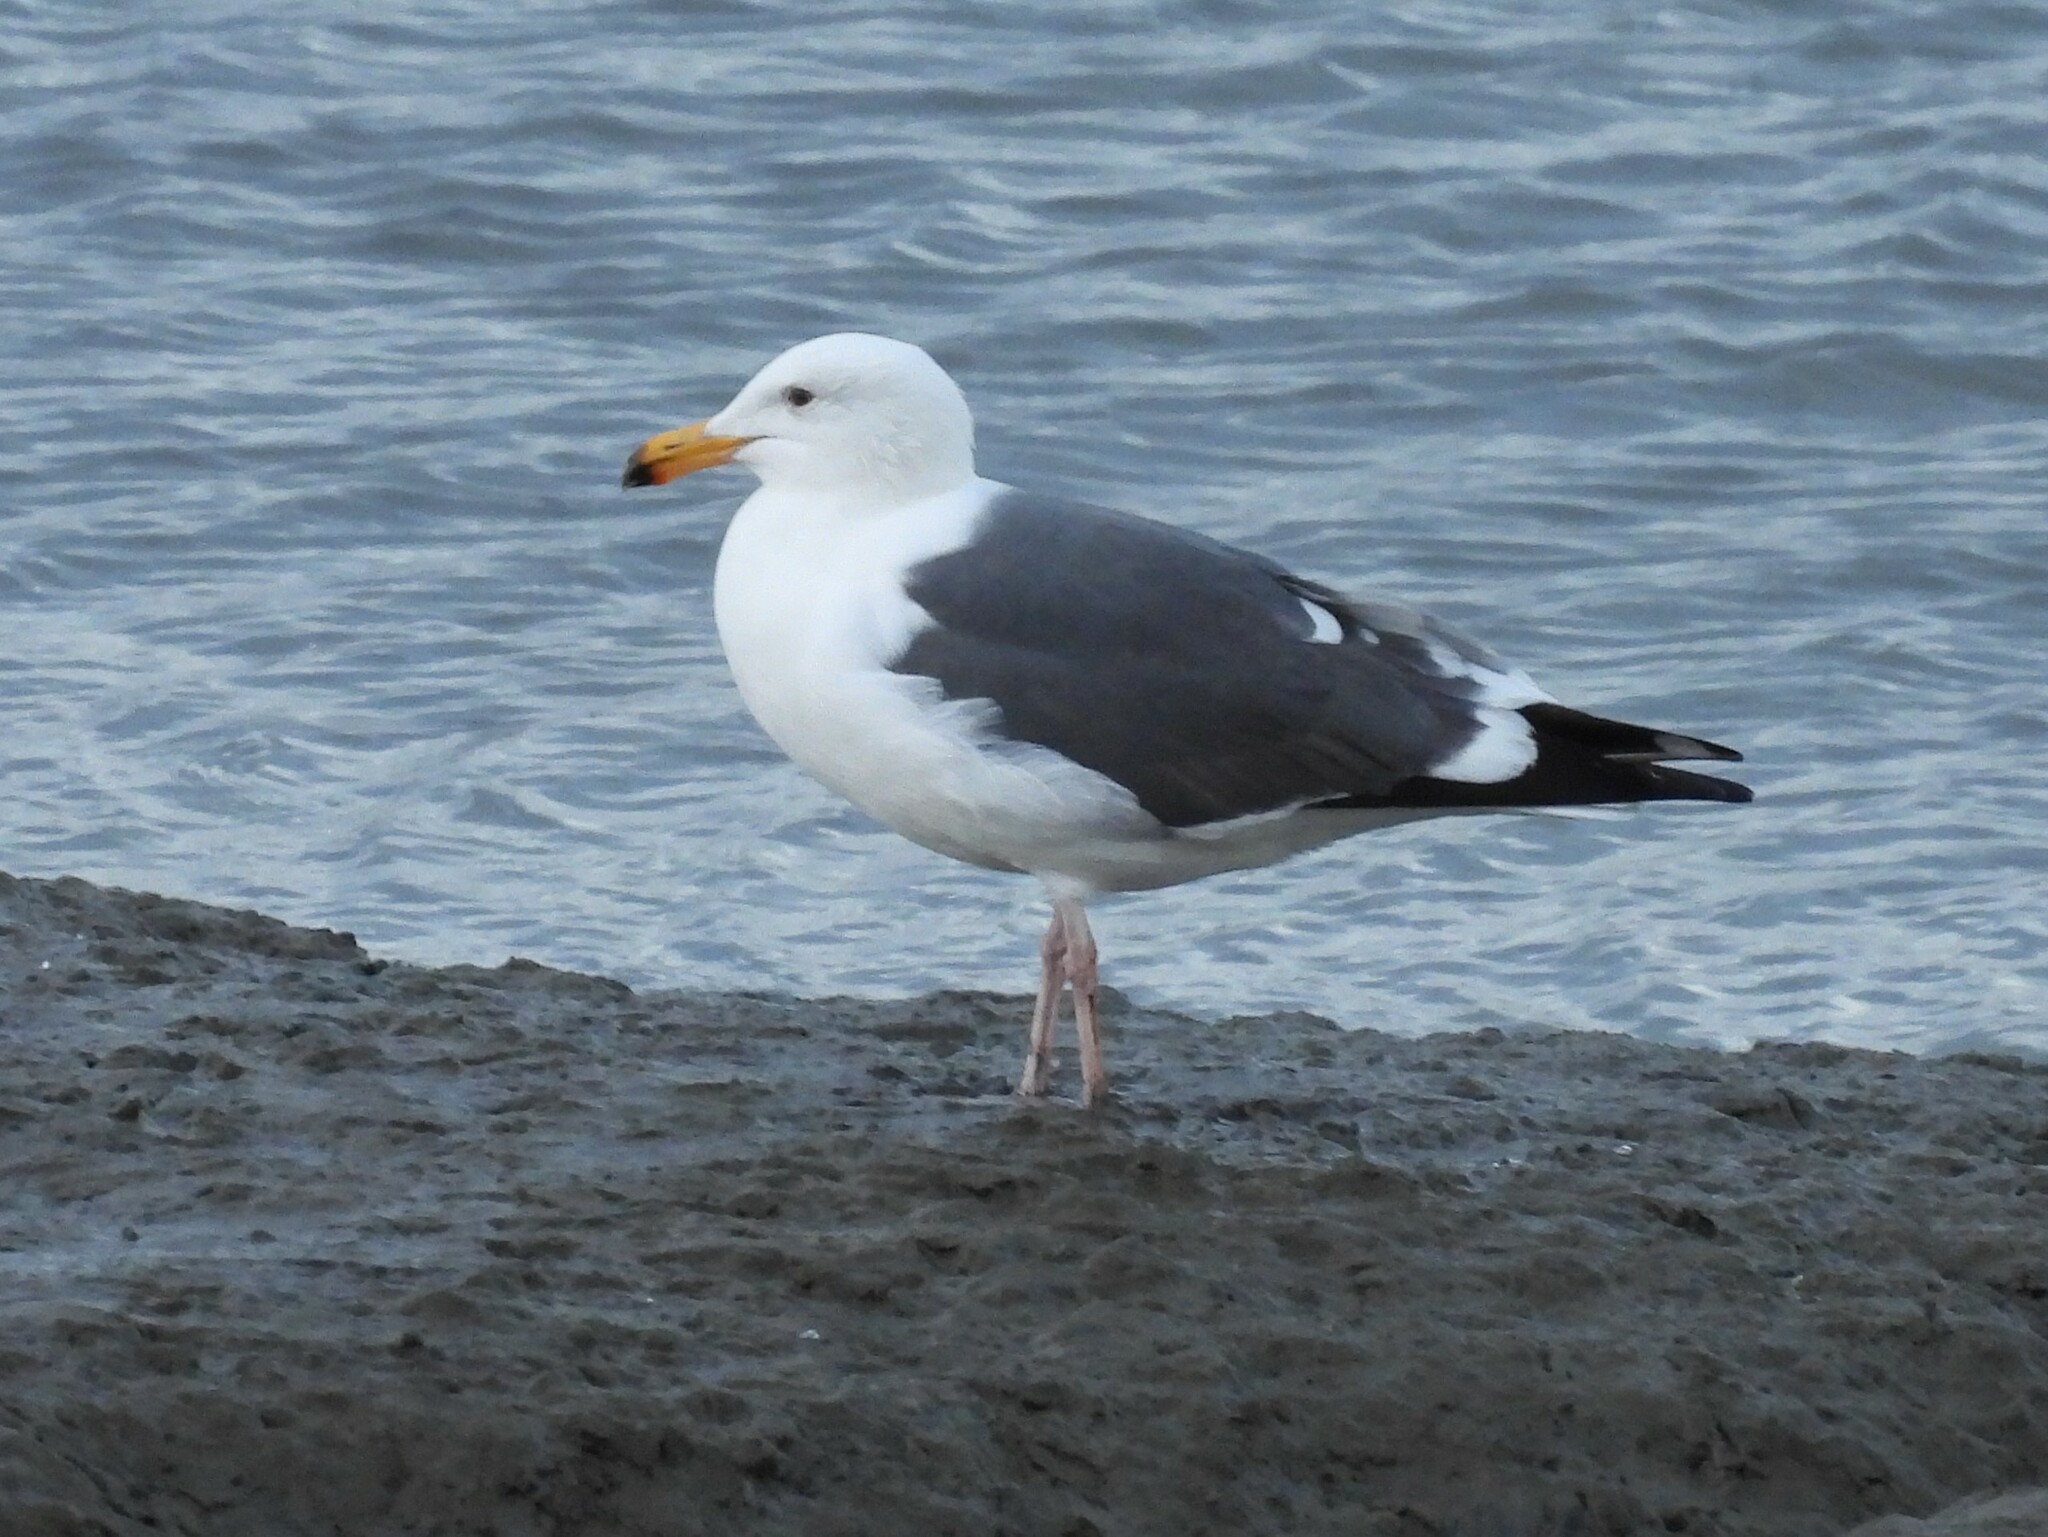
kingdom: Animalia
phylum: Chordata
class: Aves
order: Charadriiformes
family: Laridae
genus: Larus
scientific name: Larus occidentalis
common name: Western gull
